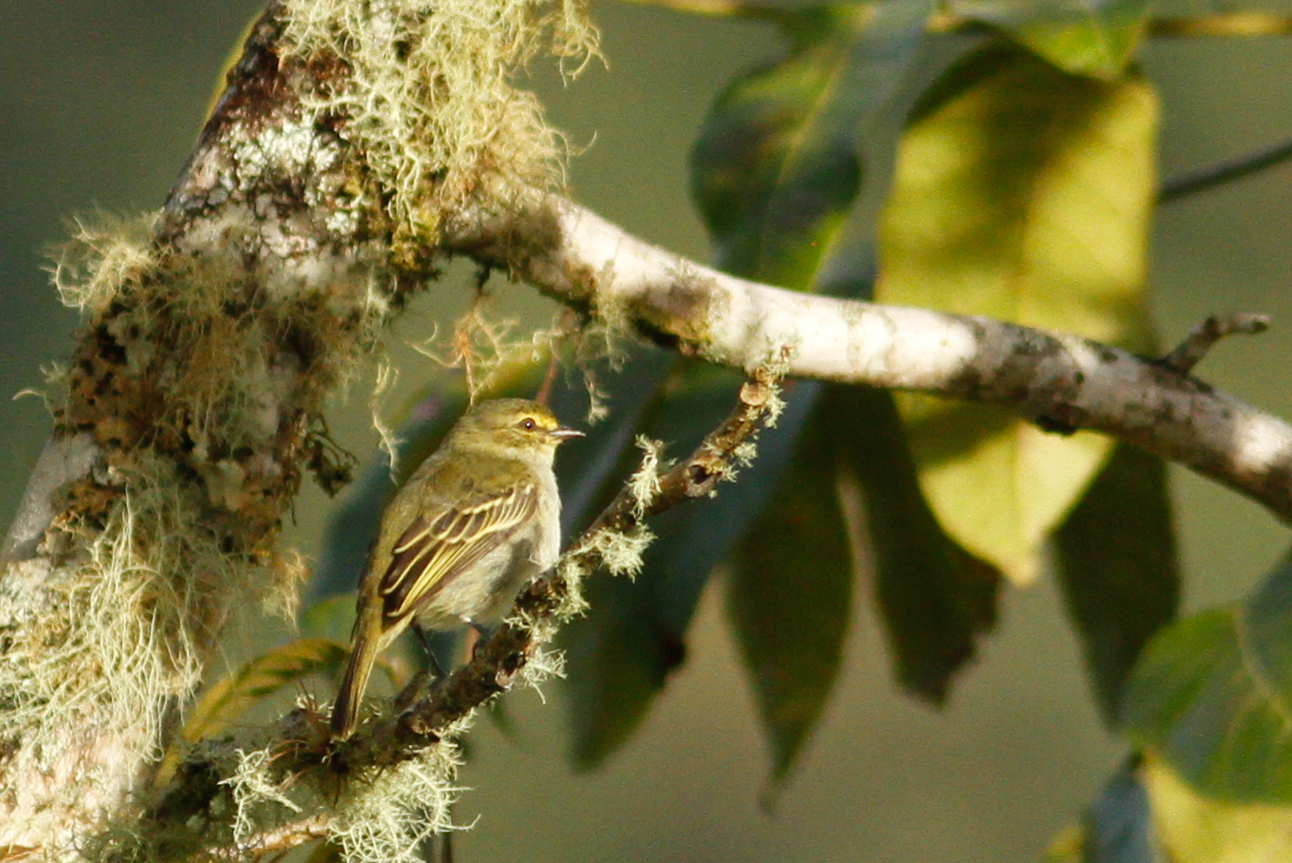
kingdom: Animalia
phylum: Chordata
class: Aves
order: Passeriformes
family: Tyrannidae
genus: Zimmerius
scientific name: Zimmerius chrysops
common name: Golden-faced tyrannulet
